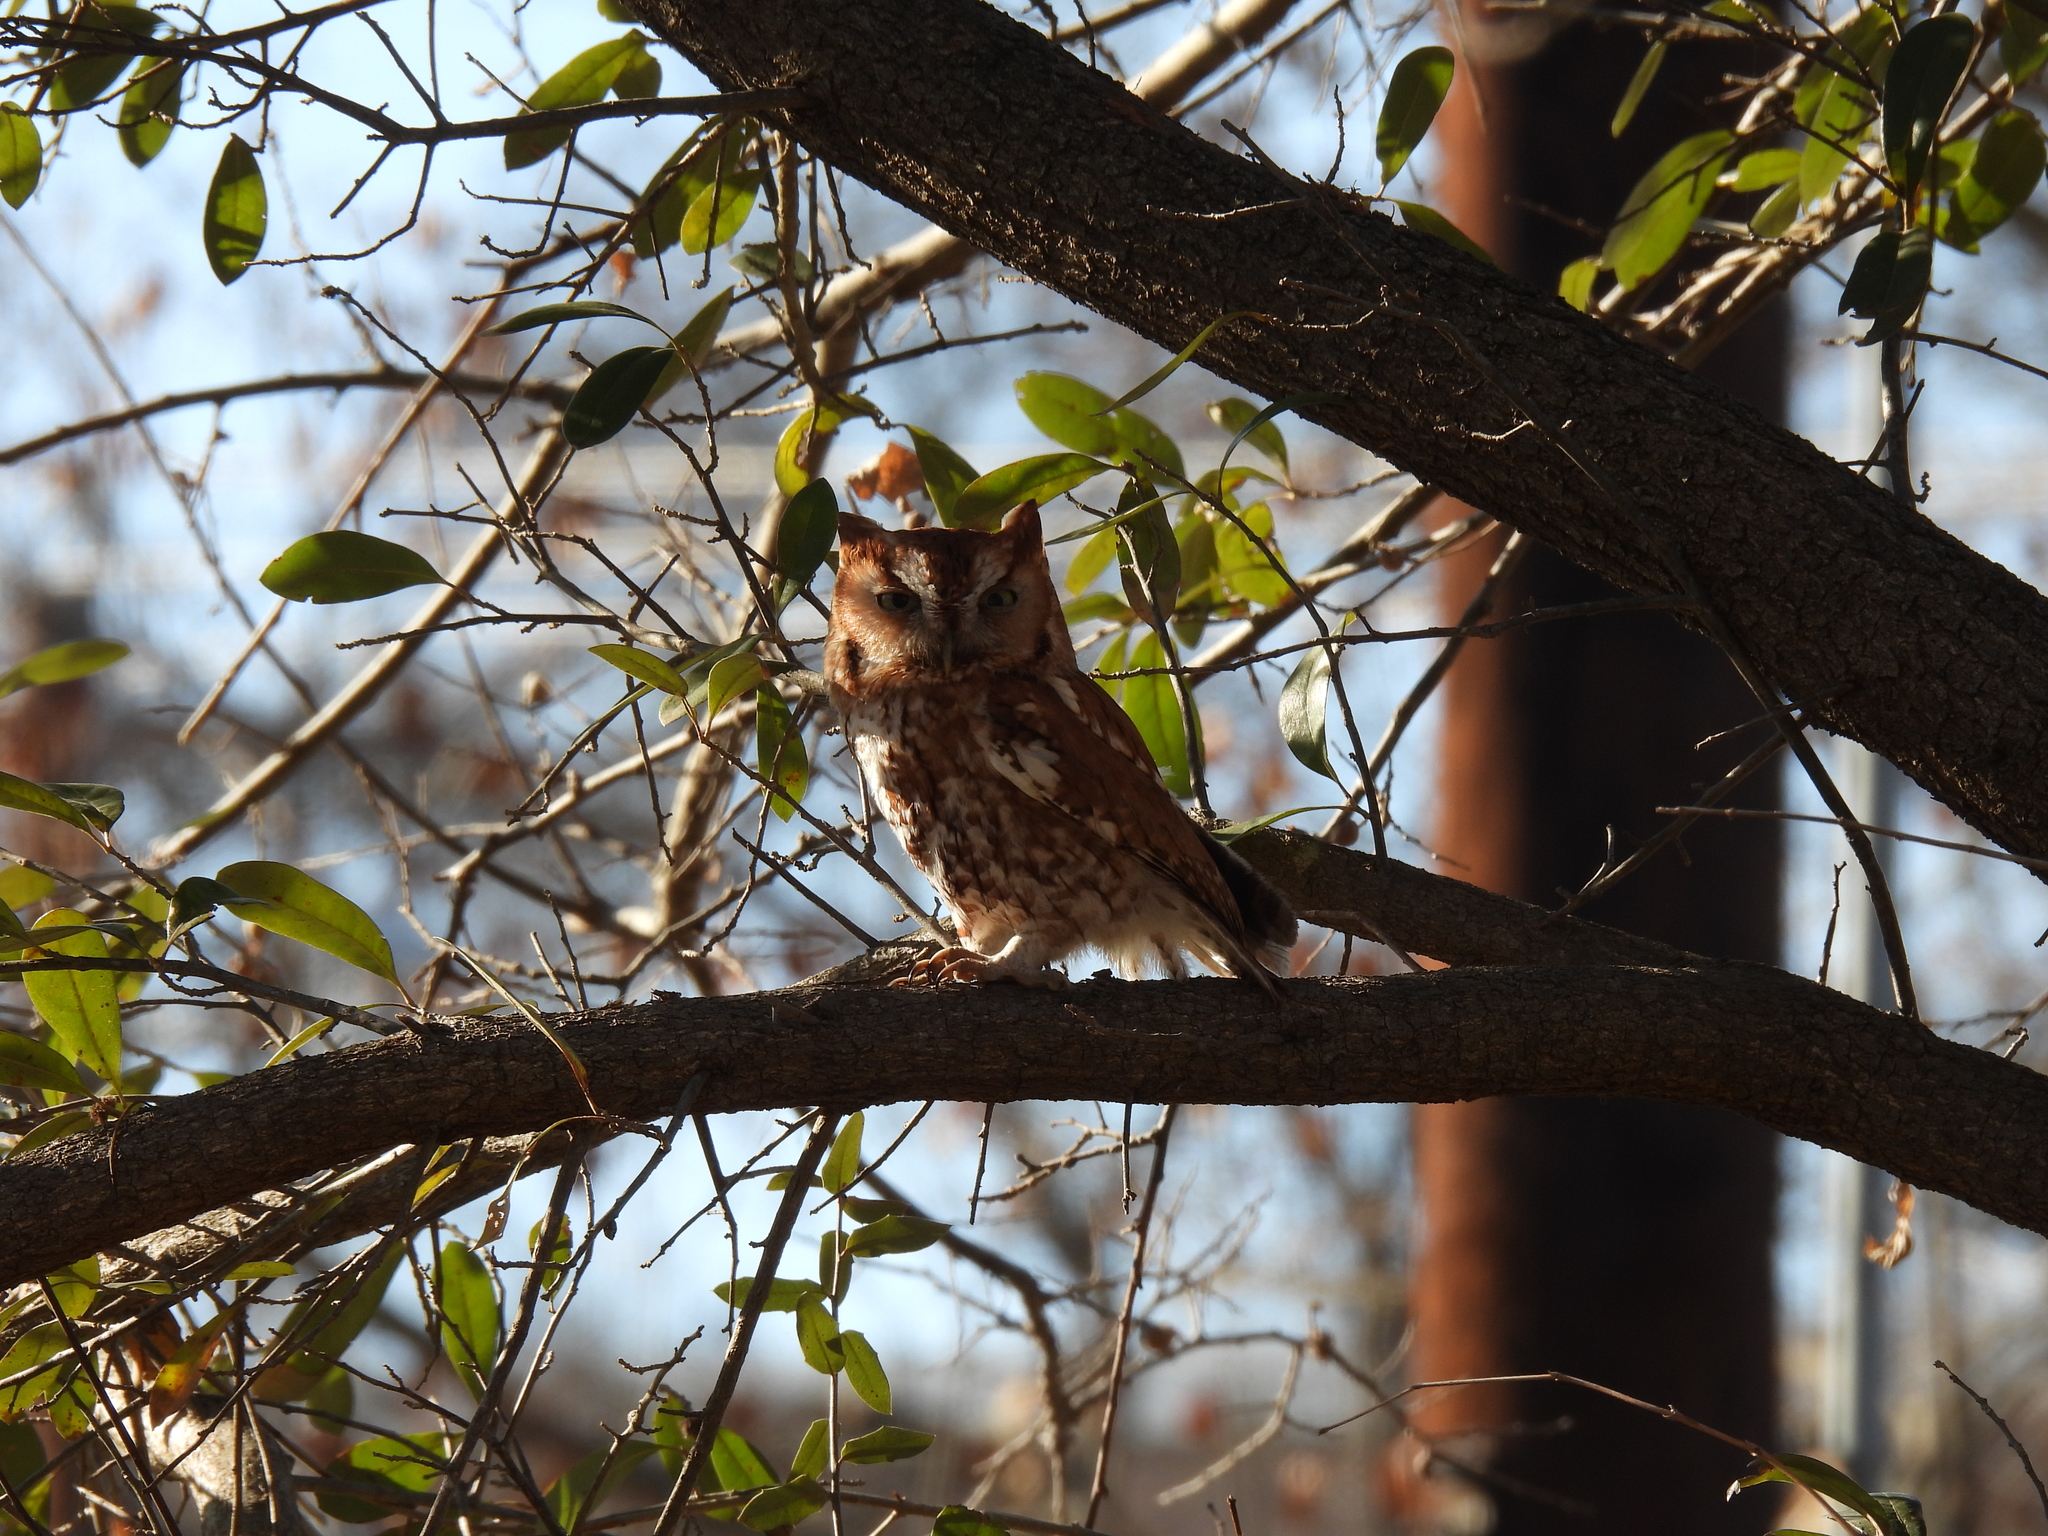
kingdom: Animalia
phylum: Chordata
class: Aves
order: Strigiformes
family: Strigidae
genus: Megascops
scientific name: Megascops asio
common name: Eastern screech-owl
